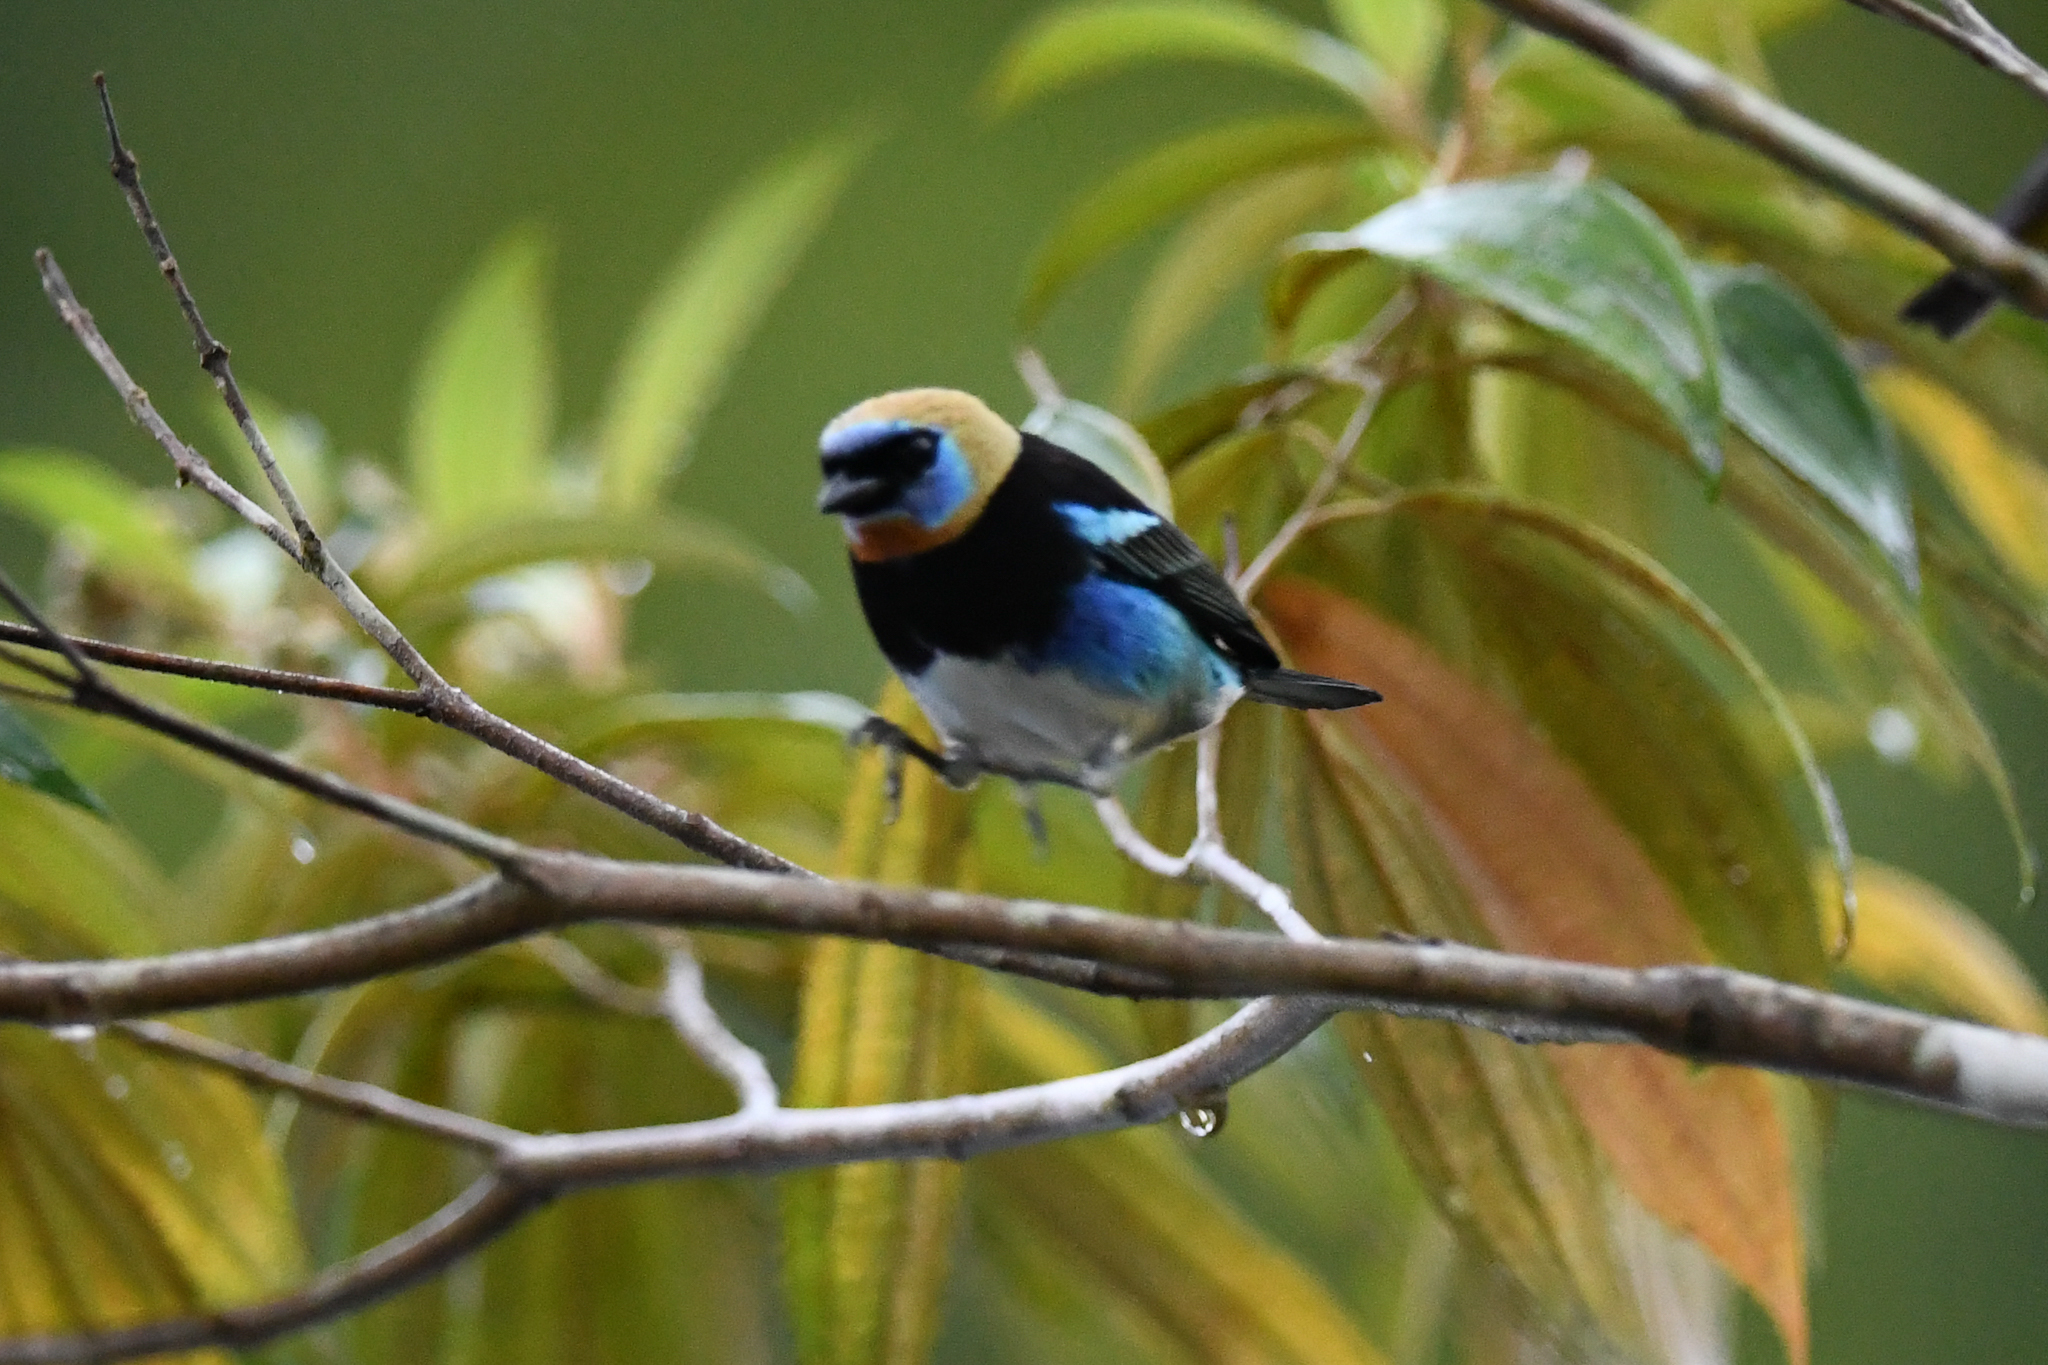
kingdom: Animalia
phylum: Chordata
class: Aves
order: Passeriformes
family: Thraupidae
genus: Stilpnia
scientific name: Stilpnia larvata
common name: Golden-hooded tanager
